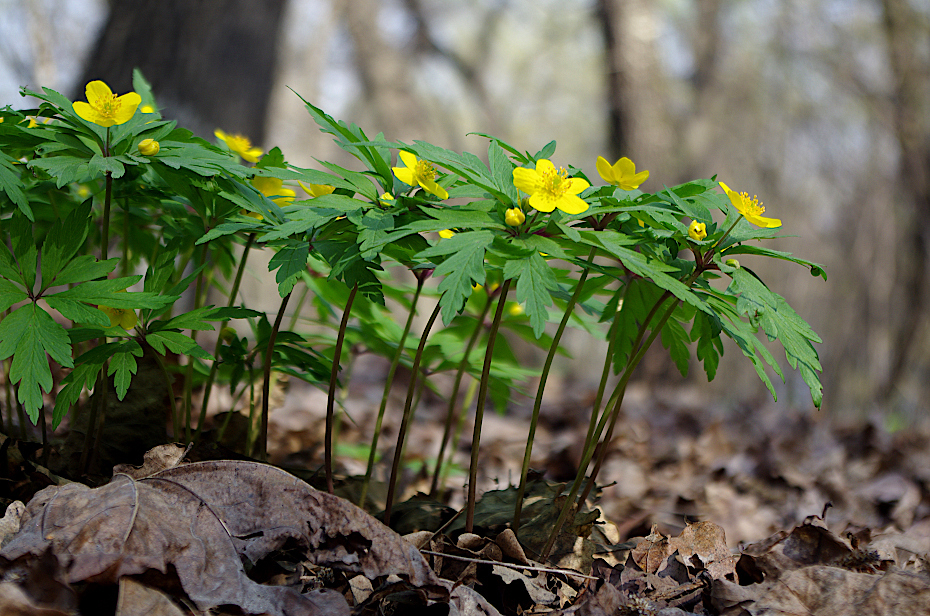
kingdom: Plantae
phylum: Tracheophyta
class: Magnoliopsida
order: Ranunculales
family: Ranunculaceae
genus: Anemone
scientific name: Anemone ranunculoides
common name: Yellow anemone
